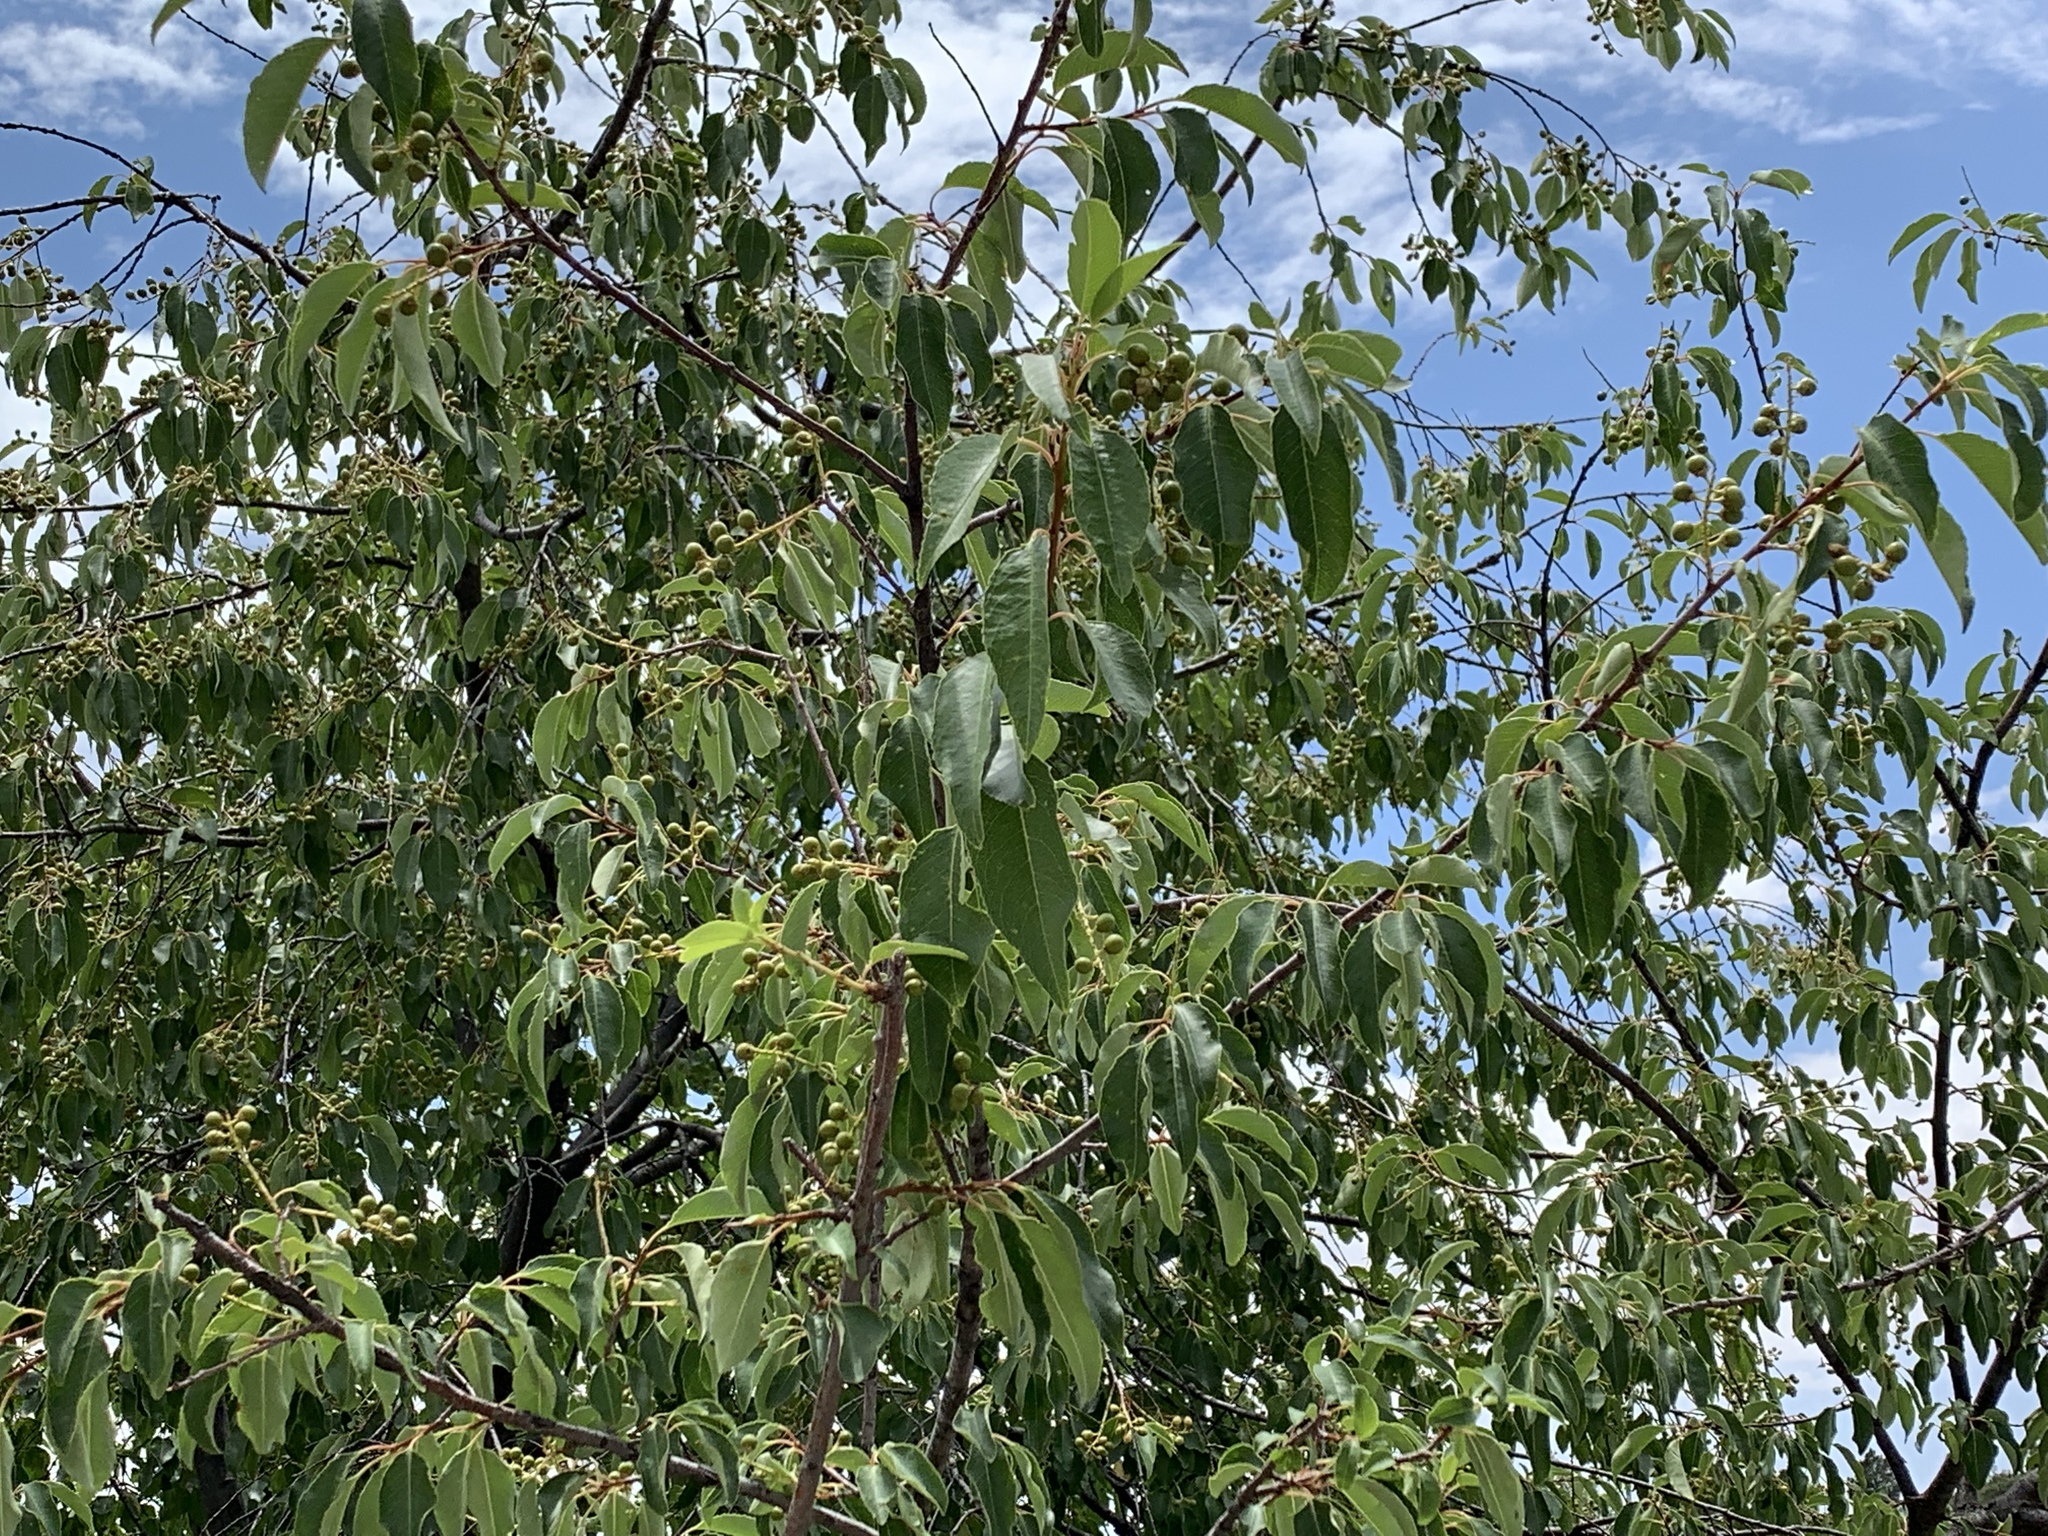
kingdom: Plantae
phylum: Tracheophyta
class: Magnoliopsida
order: Rosales
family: Rosaceae
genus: Prunus
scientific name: Prunus serotina
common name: Black cherry
